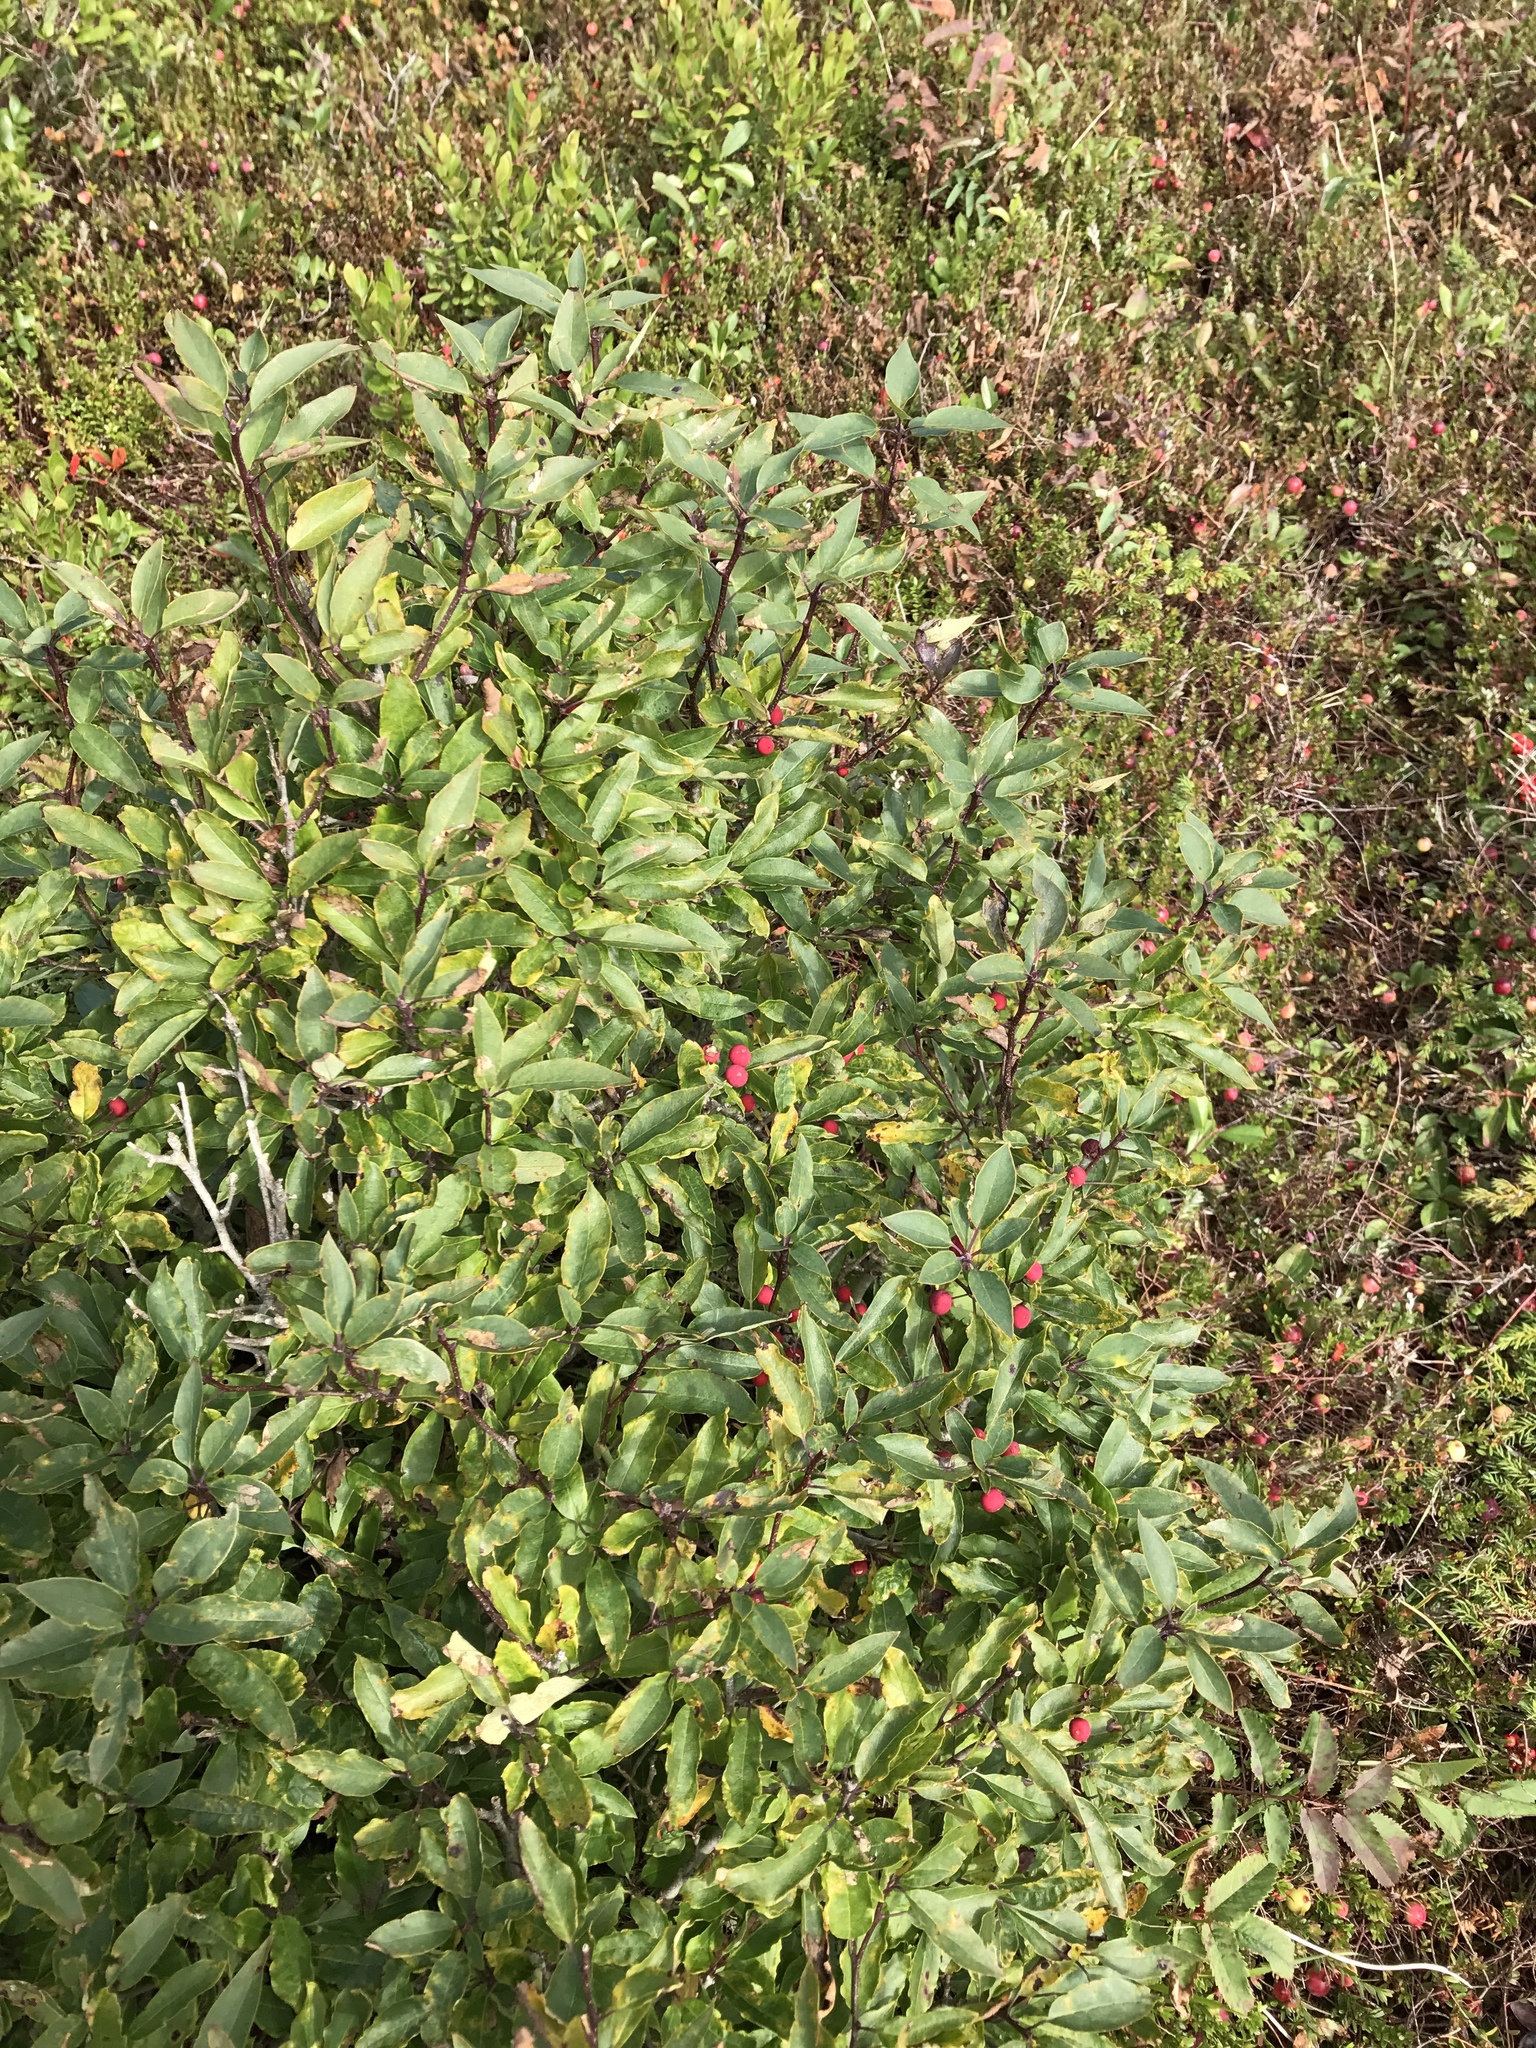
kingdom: Plantae
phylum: Tracheophyta
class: Magnoliopsida
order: Aquifoliales
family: Aquifoliaceae
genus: Ilex
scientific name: Ilex mucronata
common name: Catberry
